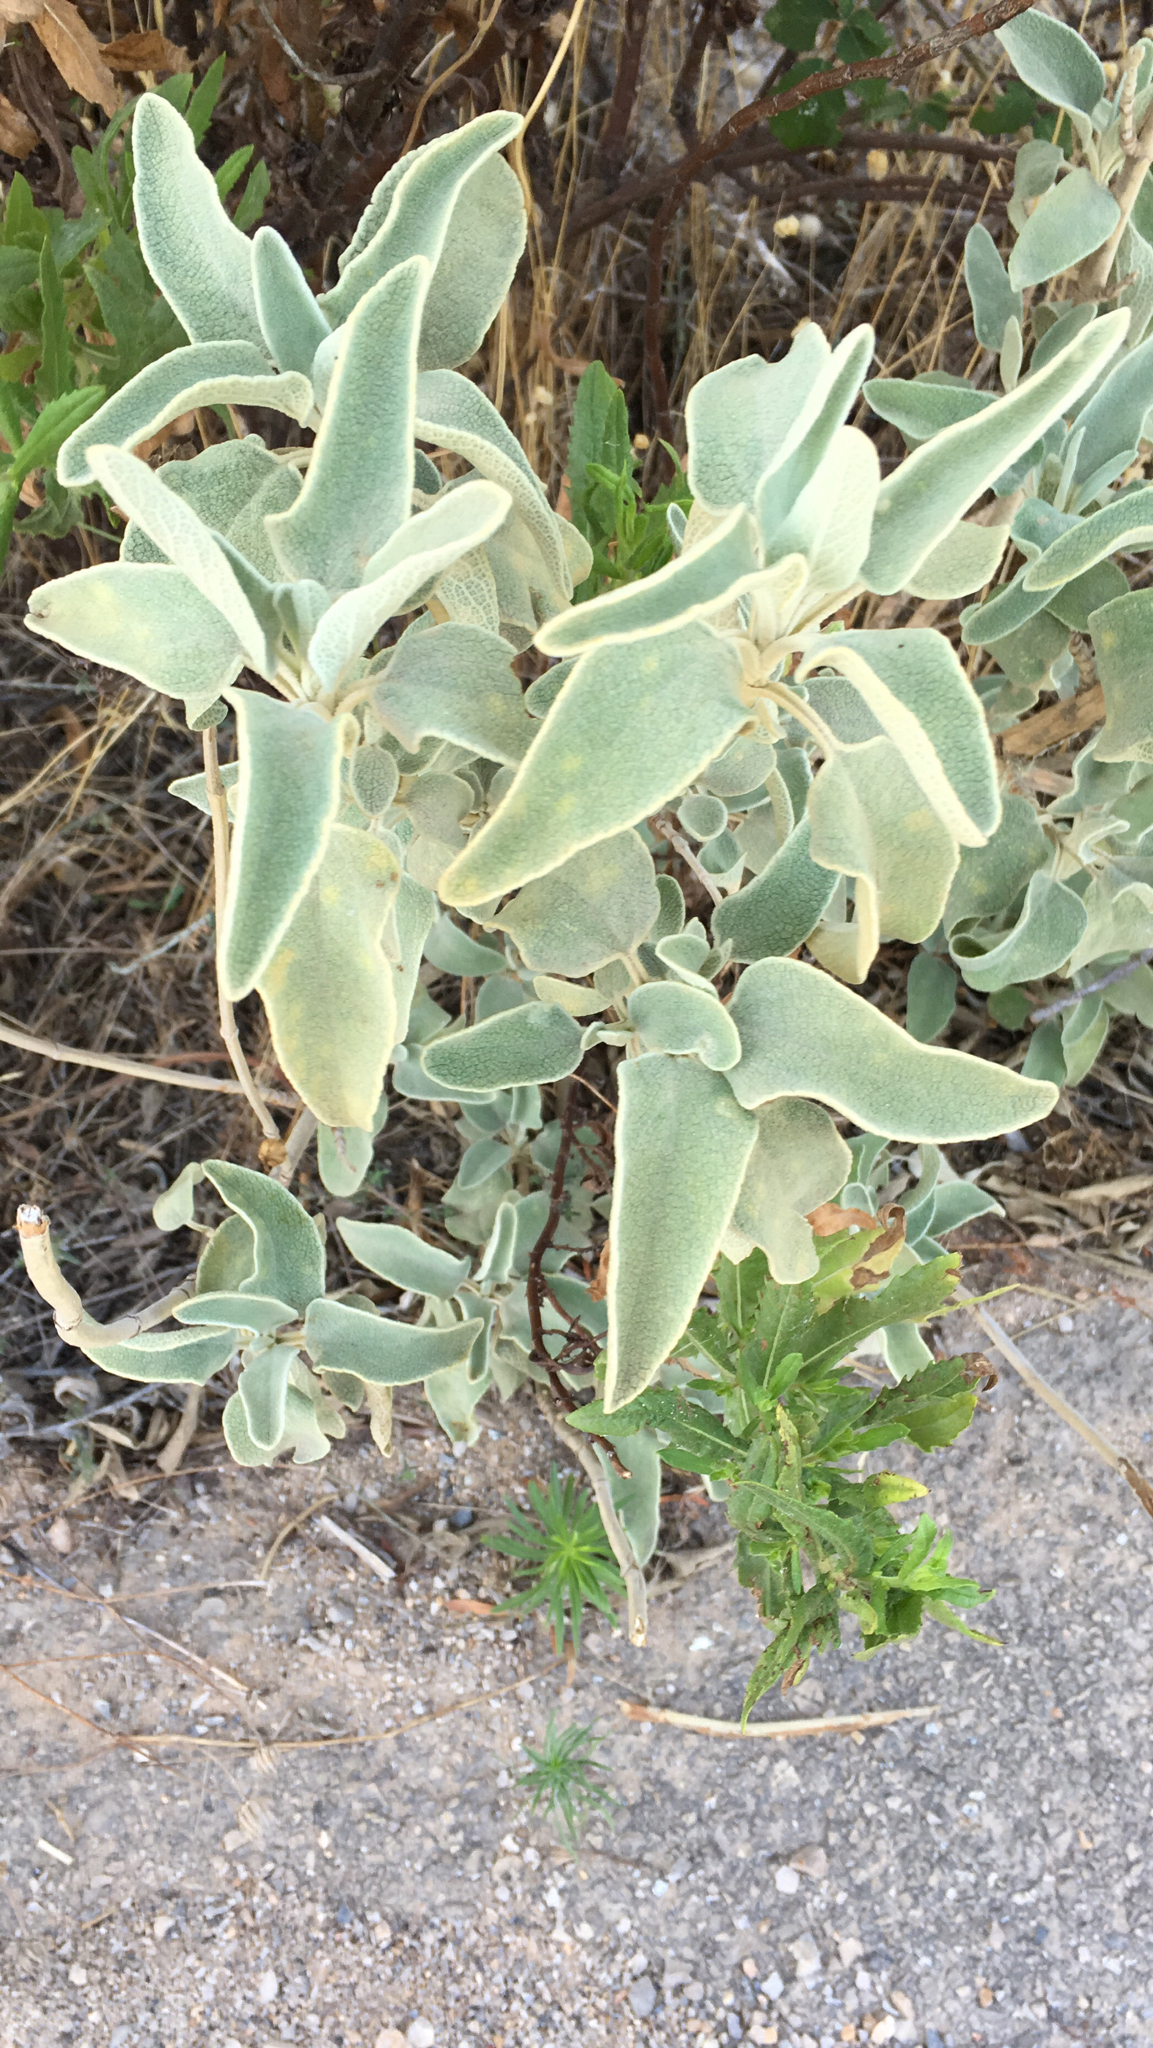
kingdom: Plantae
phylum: Tracheophyta
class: Magnoliopsida
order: Lamiales
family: Lamiaceae
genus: Phlomis
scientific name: Phlomis fruticosa
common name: Jerusalem sage
